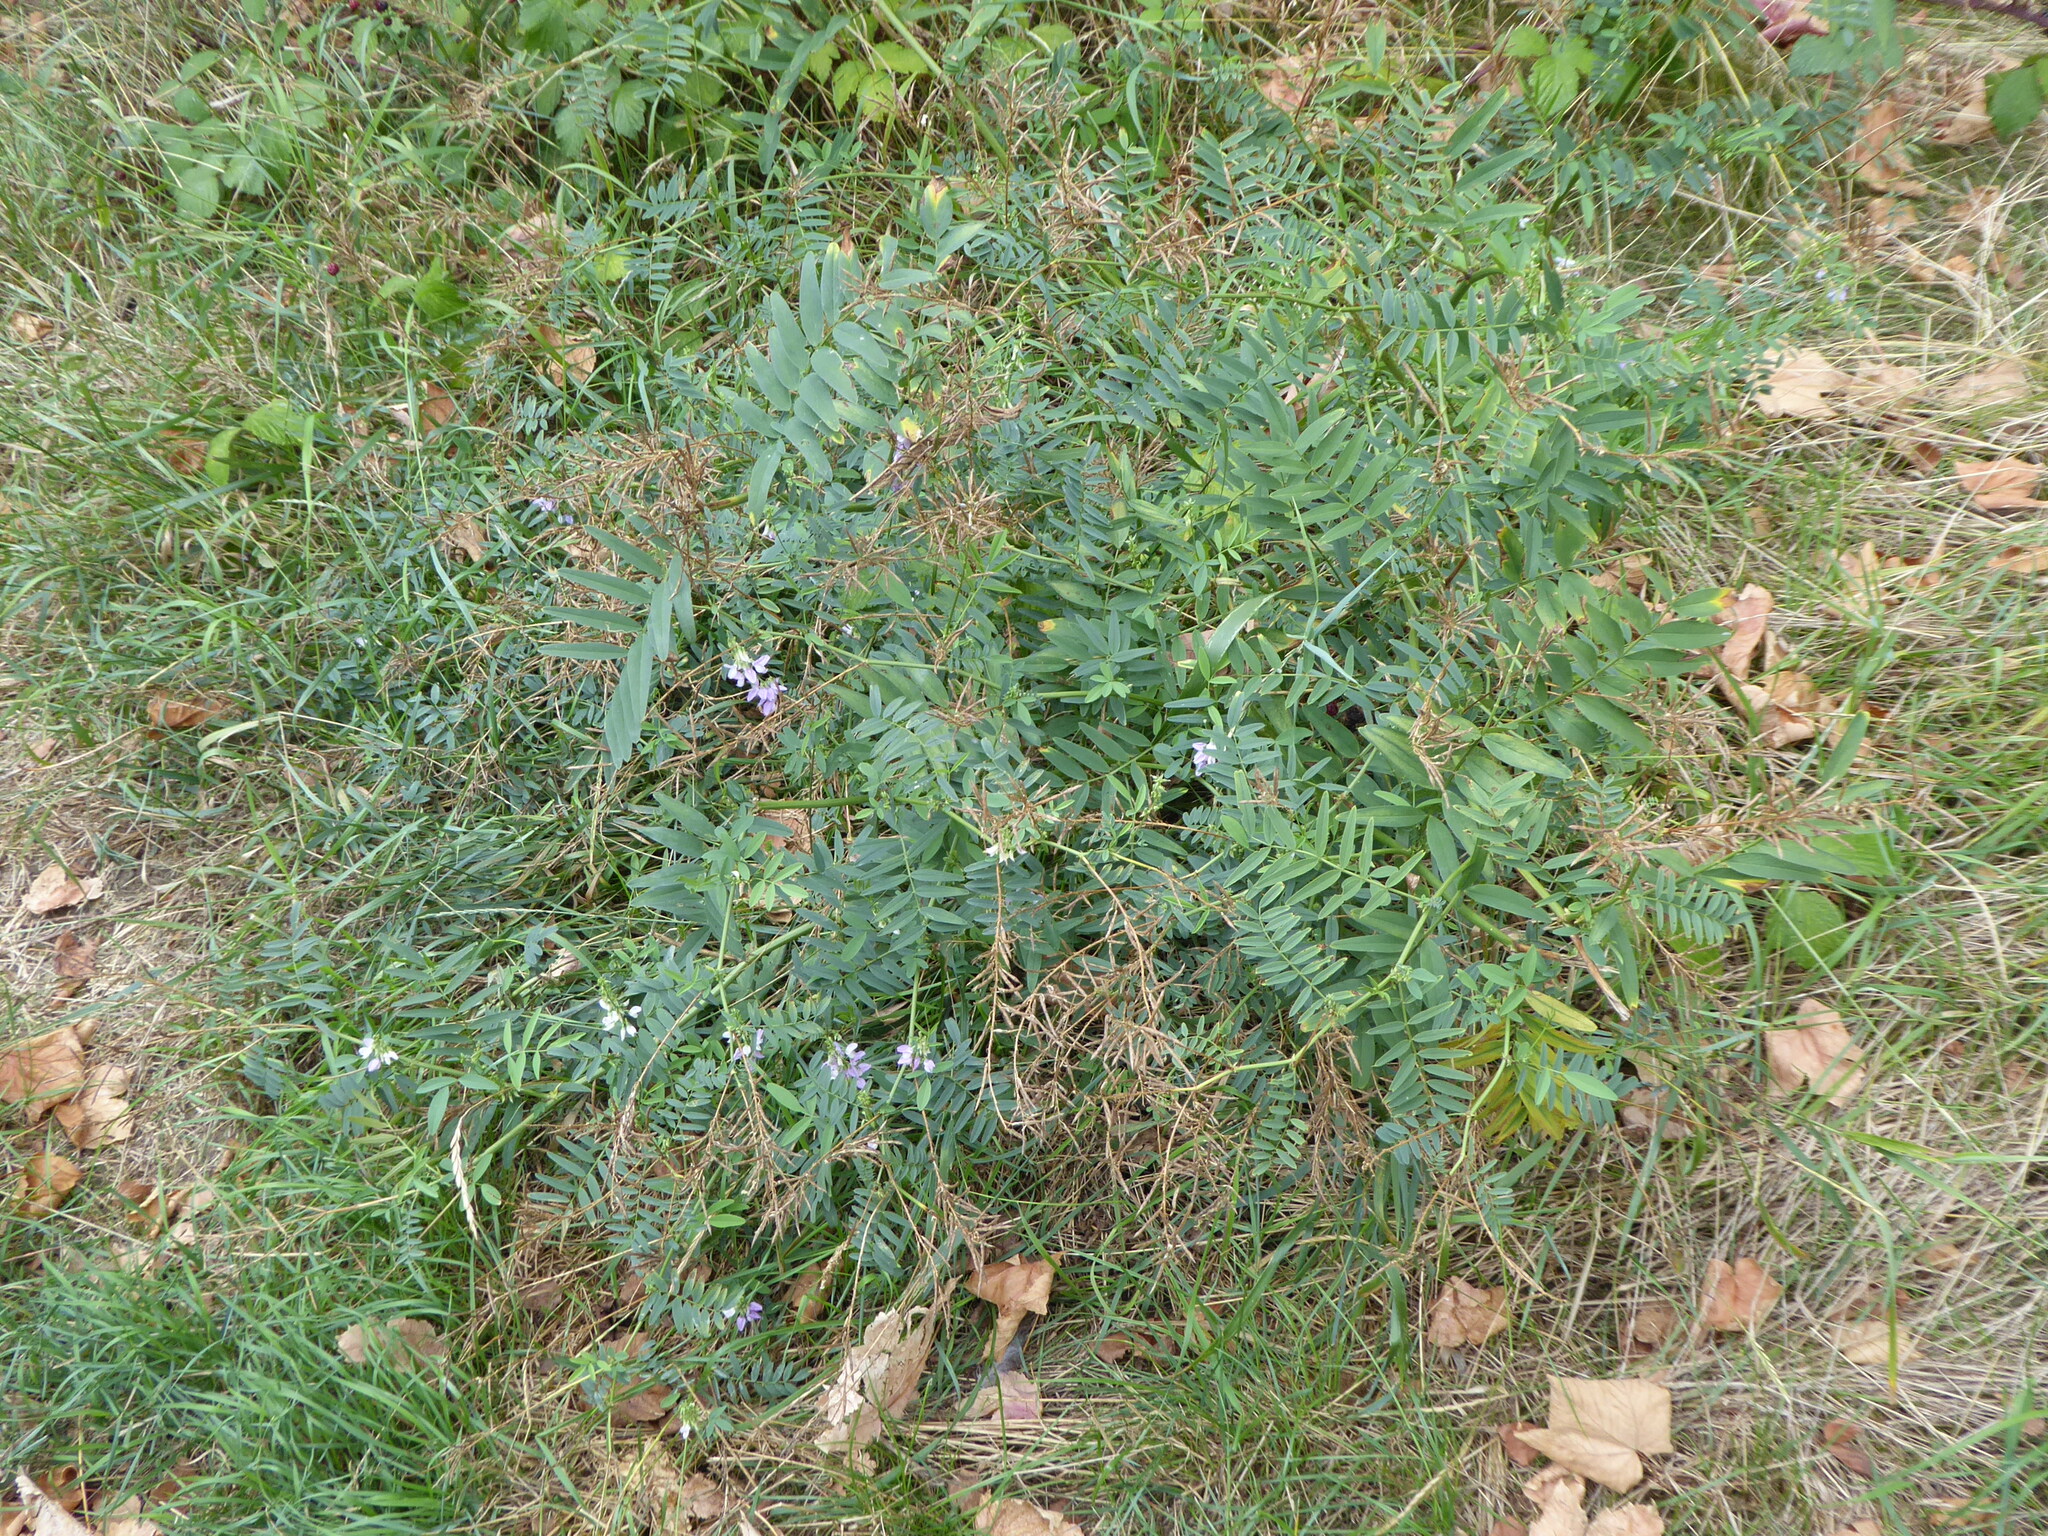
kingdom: Plantae
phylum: Tracheophyta
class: Magnoliopsida
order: Fabales
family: Fabaceae
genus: Galega
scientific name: Galega officinalis
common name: Goat's-rue
